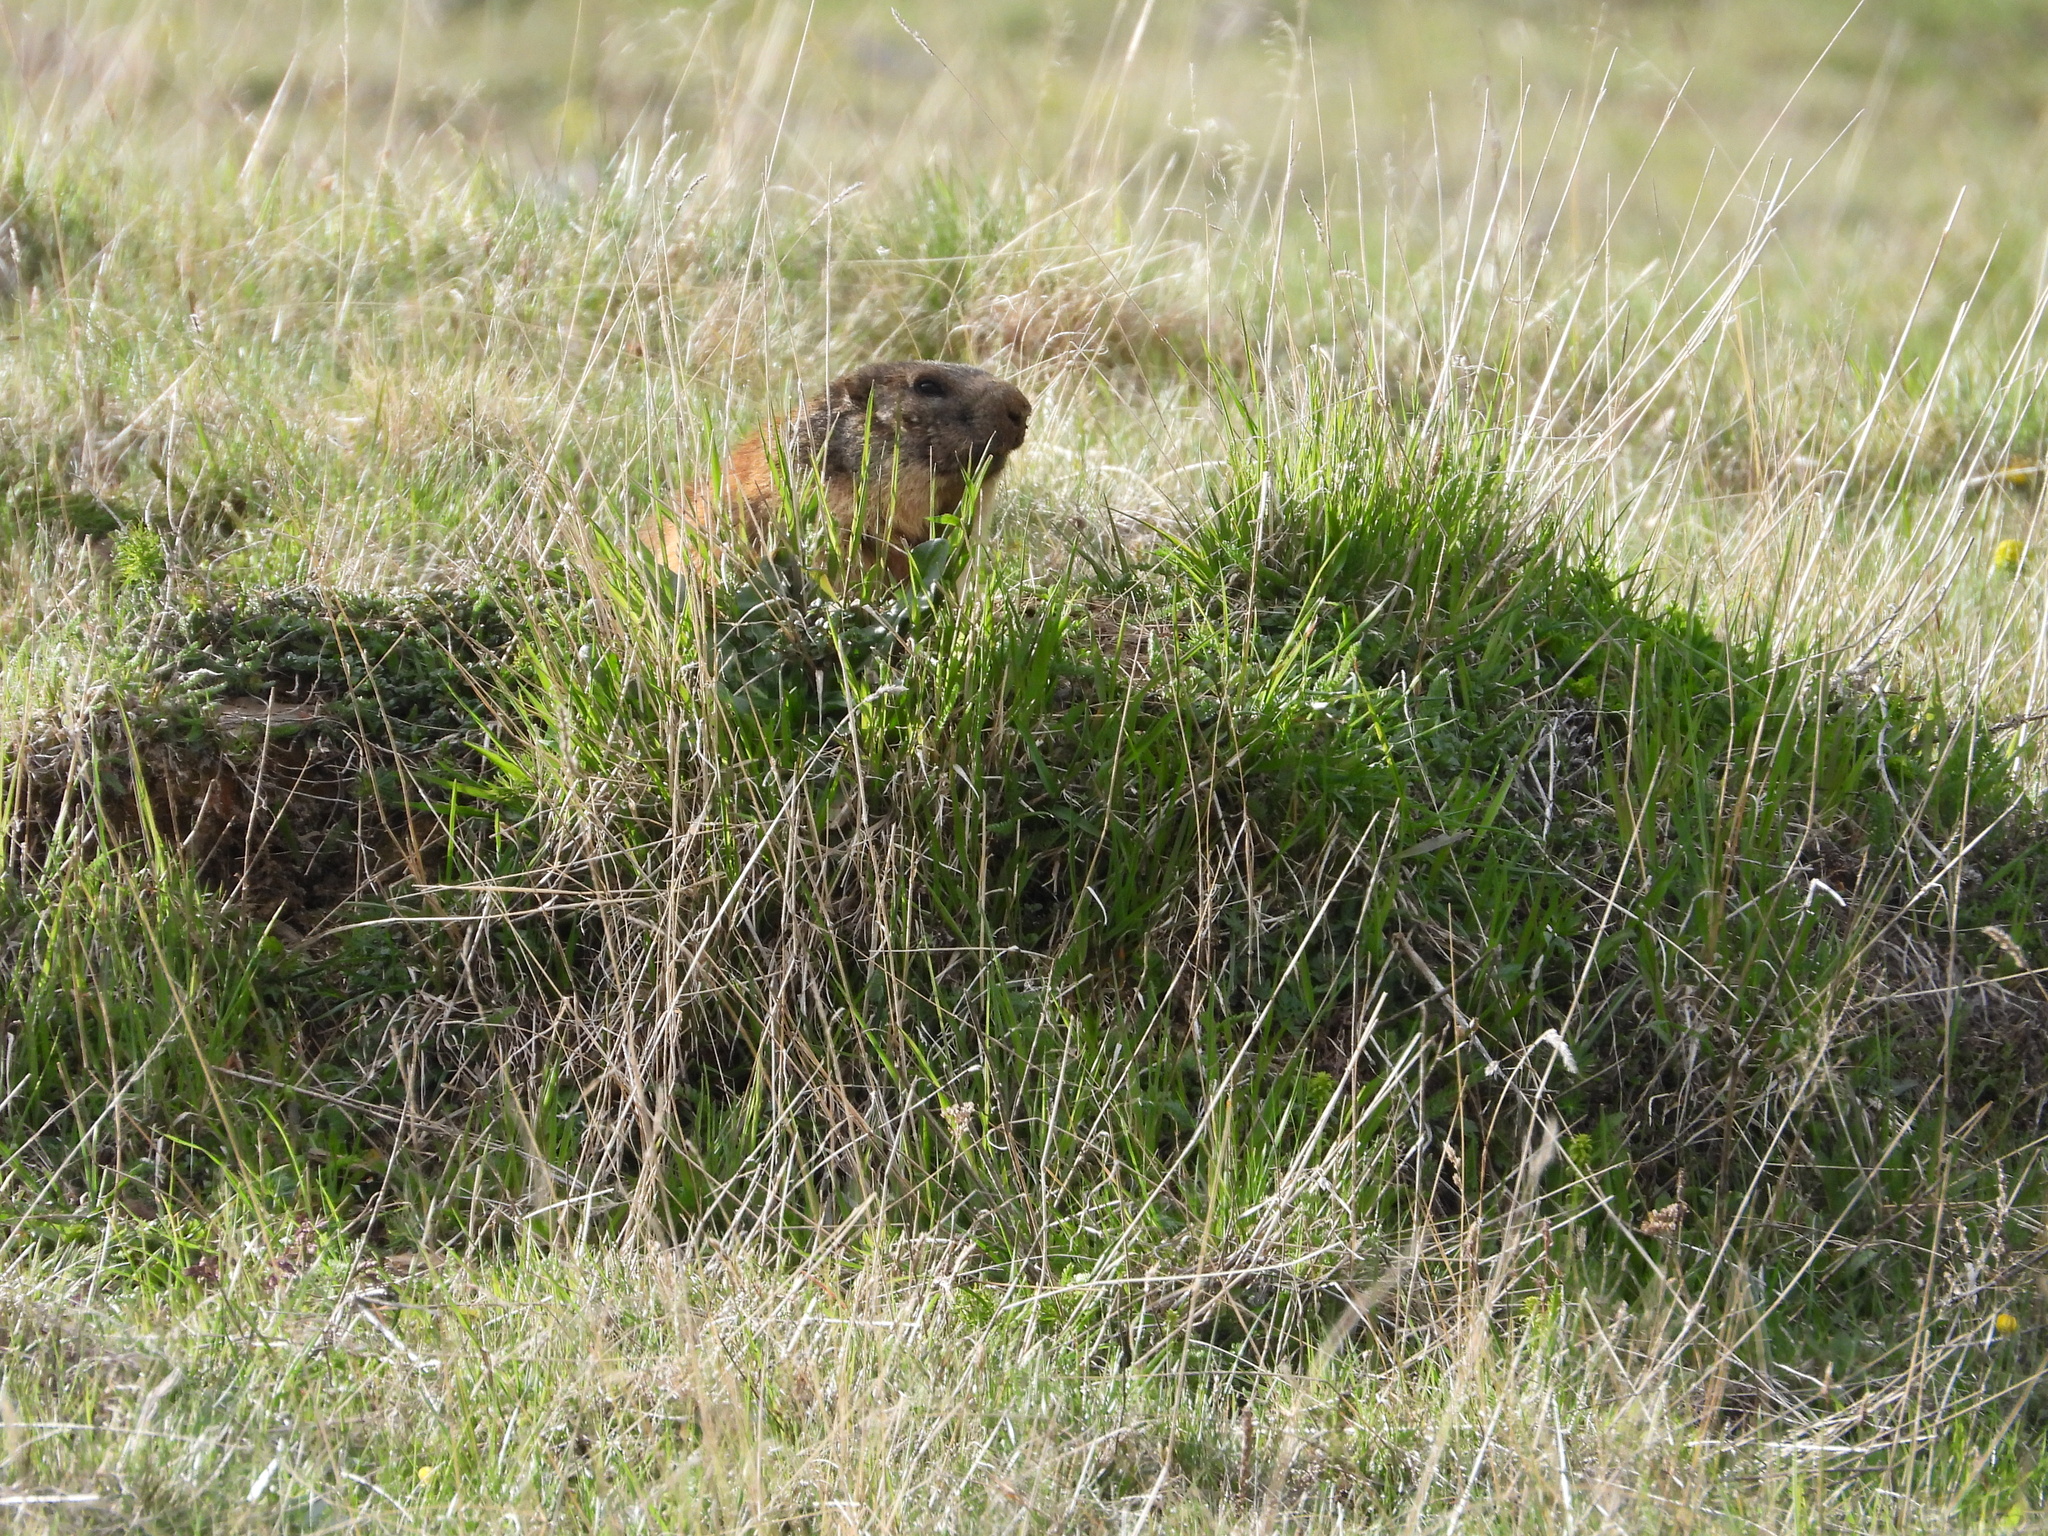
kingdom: Animalia
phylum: Chordata
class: Mammalia
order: Rodentia
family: Sciuridae
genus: Marmota
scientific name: Marmota marmota
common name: Alpine marmot
